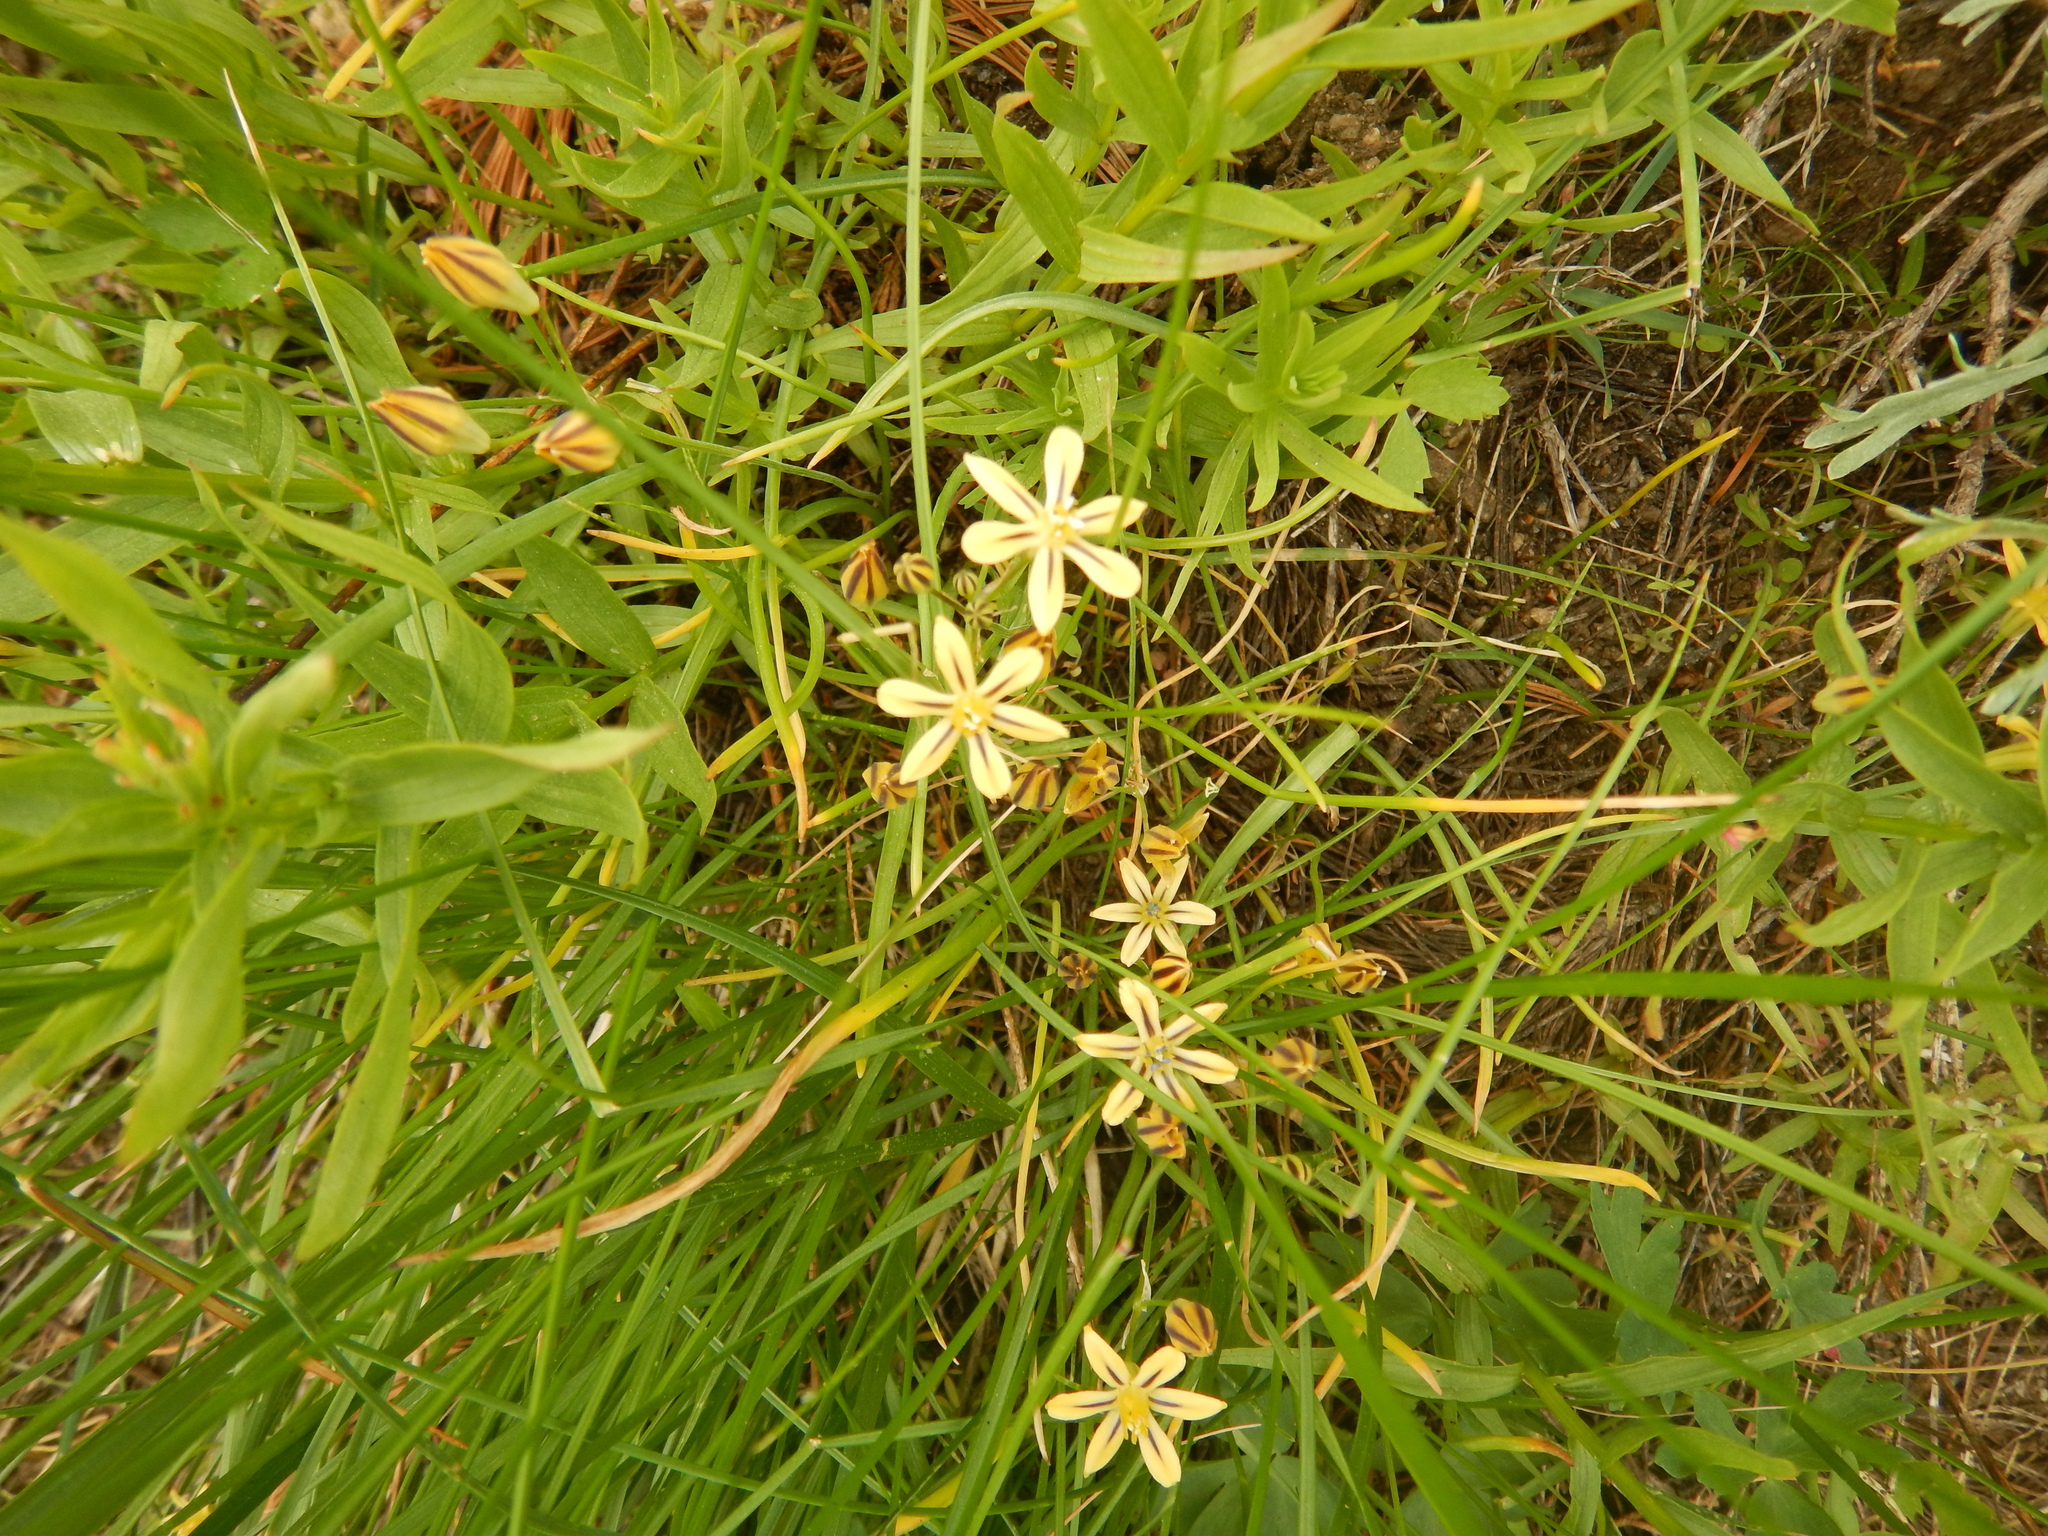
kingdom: Plantae
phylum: Tracheophyta
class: Liliopsida
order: Asparagales
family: Asparagaceae
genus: Triteleia
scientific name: Triteleia ixioides
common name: Yellow-brodiaea
